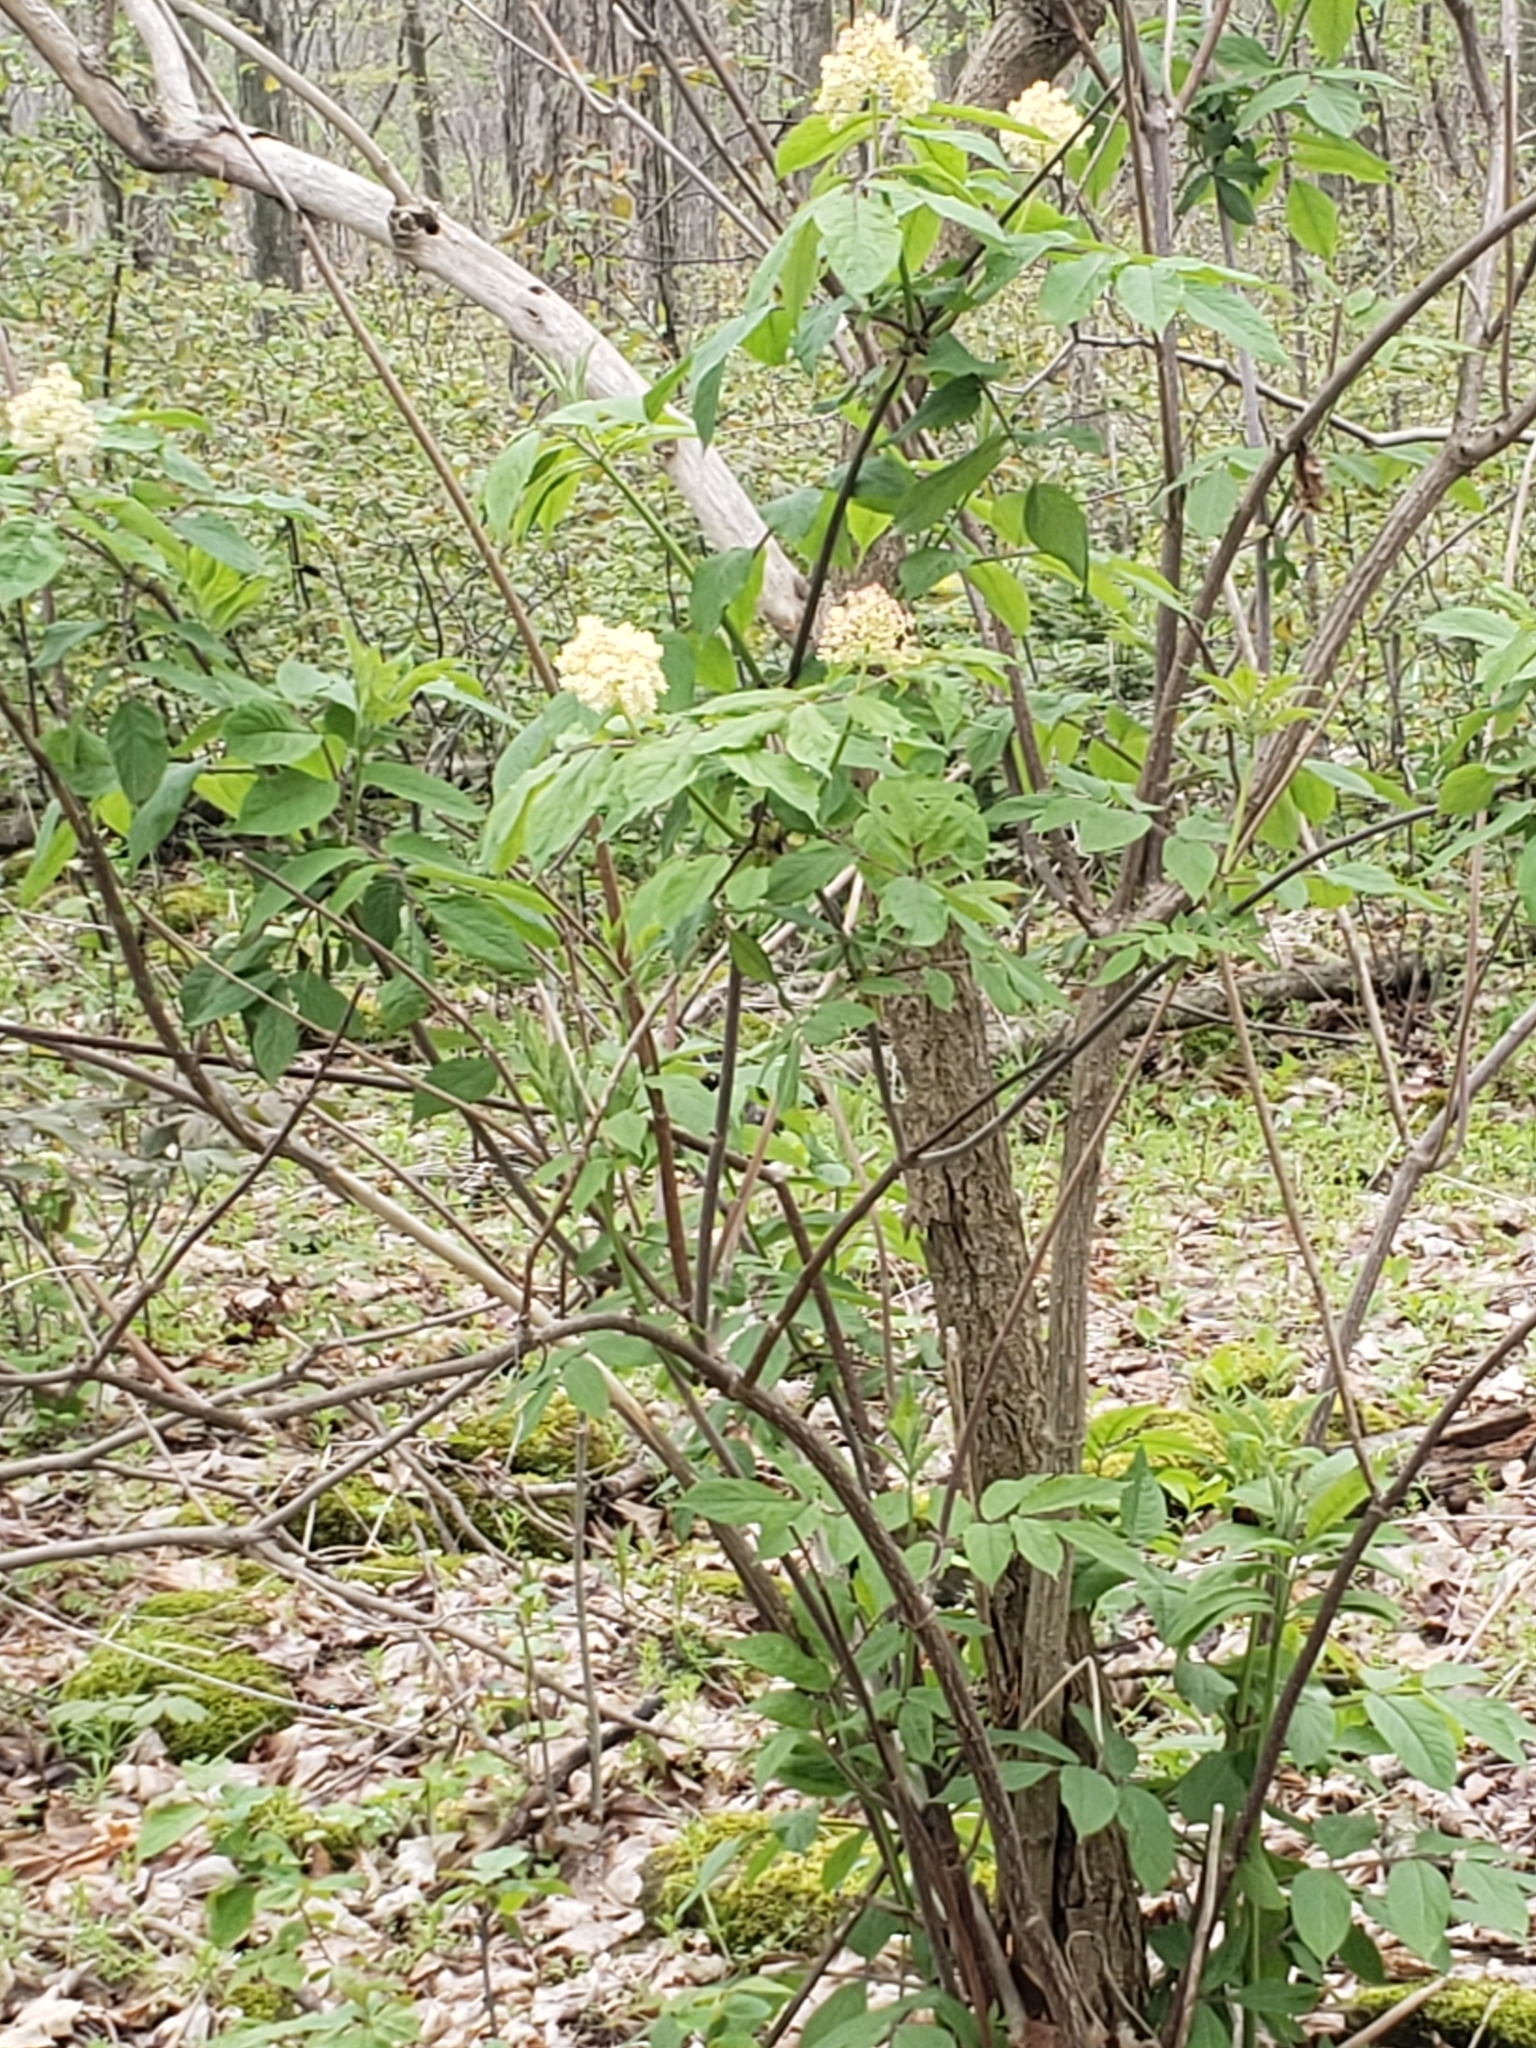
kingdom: Plantae
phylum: Tracheophyta
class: Magnoliopsida
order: Dipsacales
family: Viburnaceae
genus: Sambucus
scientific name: Sambucus racemosa
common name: Red-berried elder
